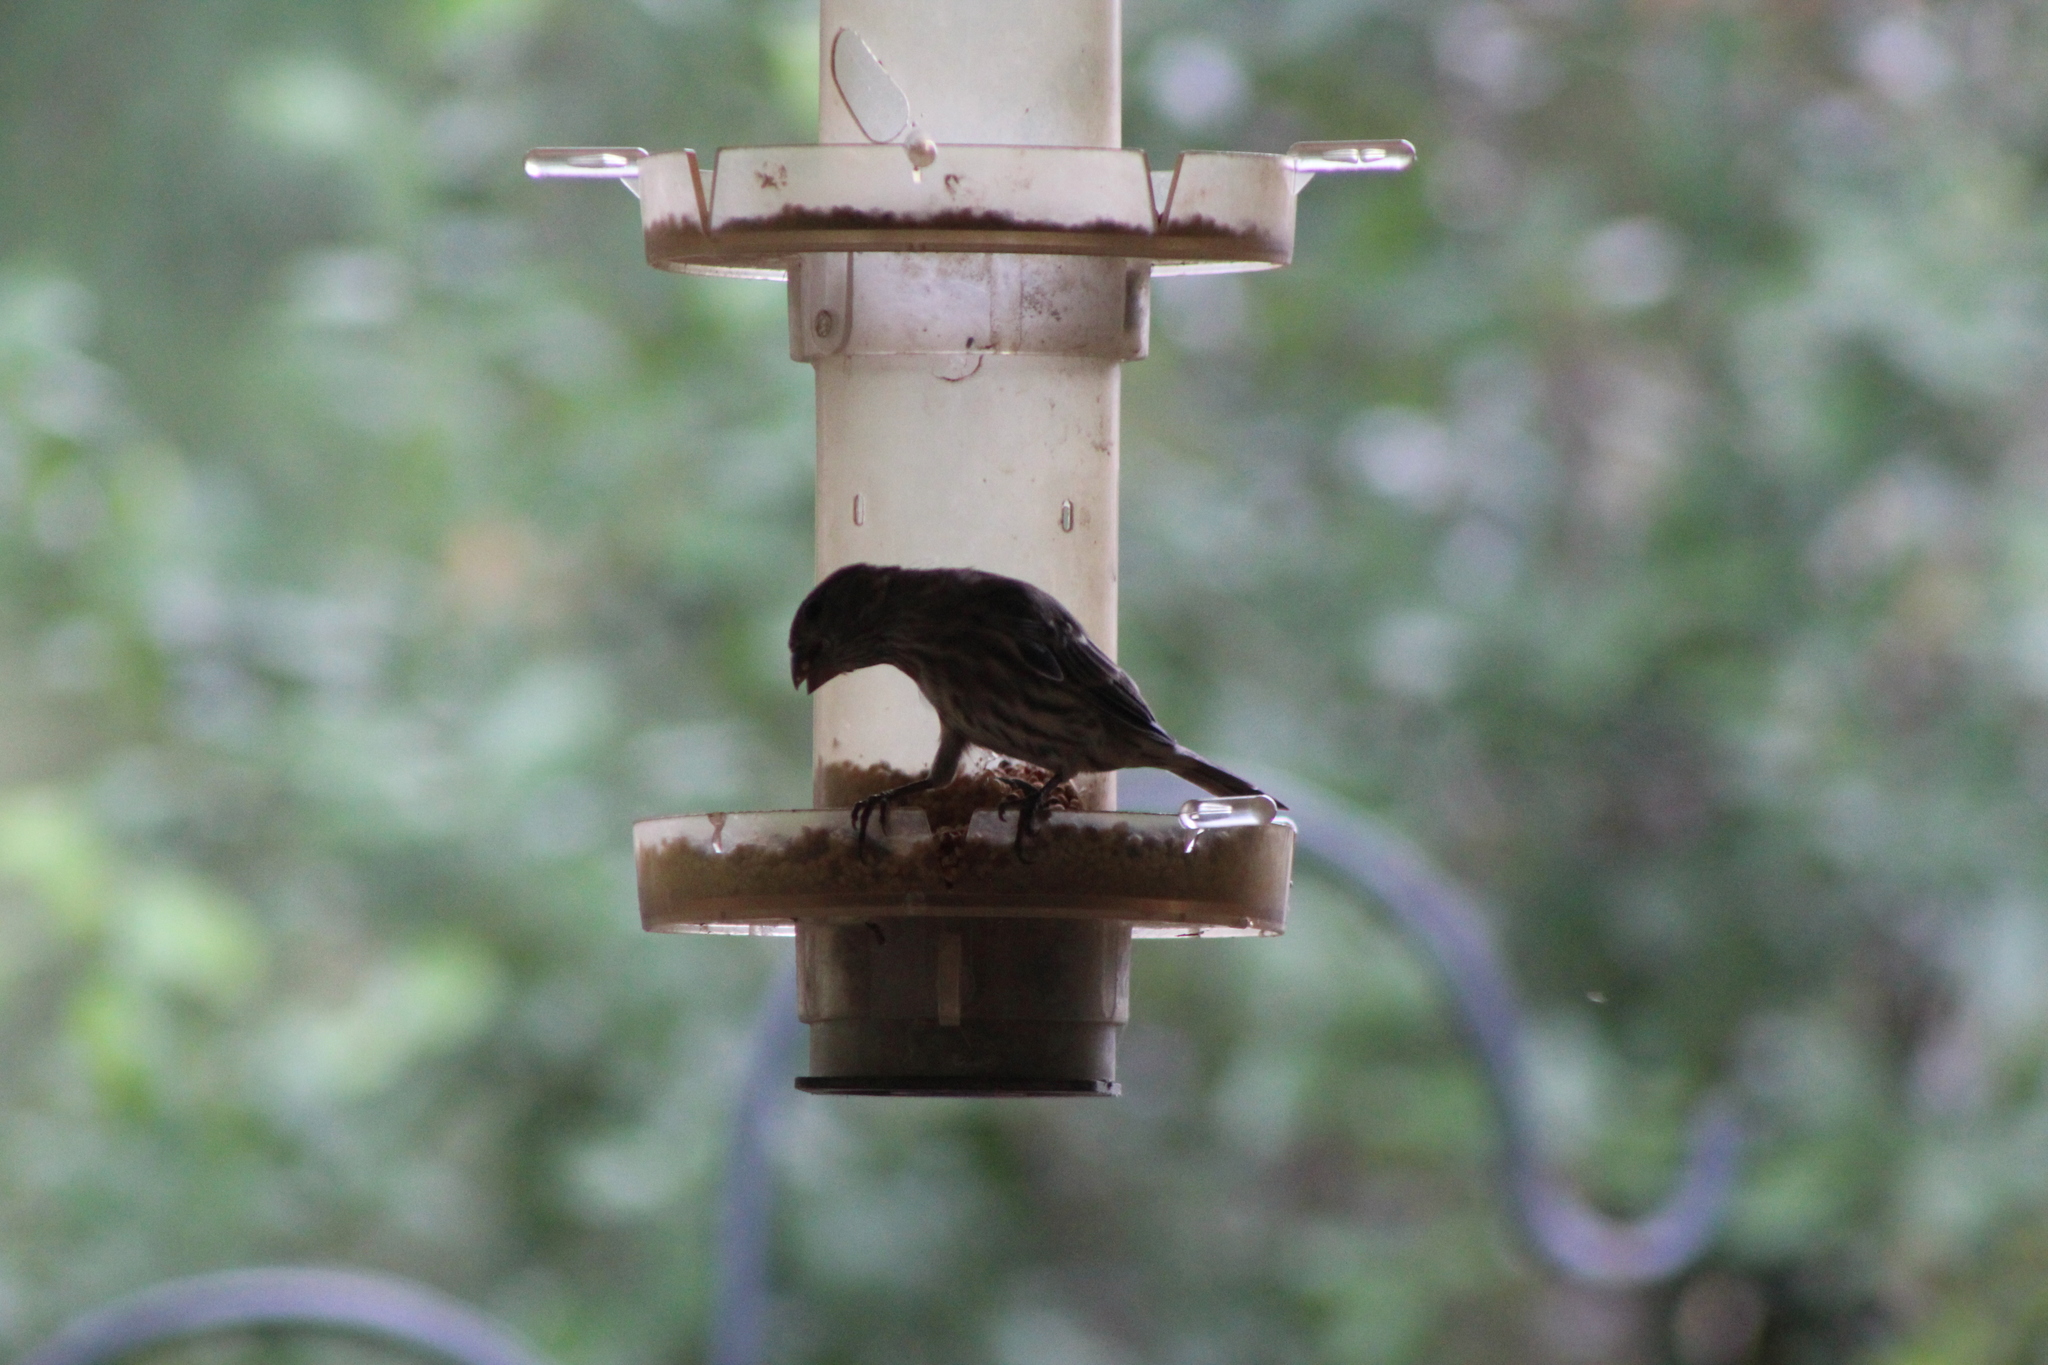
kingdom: Animalia
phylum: Chordata
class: Aves
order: Passeriformes
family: Fringillidae
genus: Haemorhous
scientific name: Haemorhous mexicanus
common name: House finch
